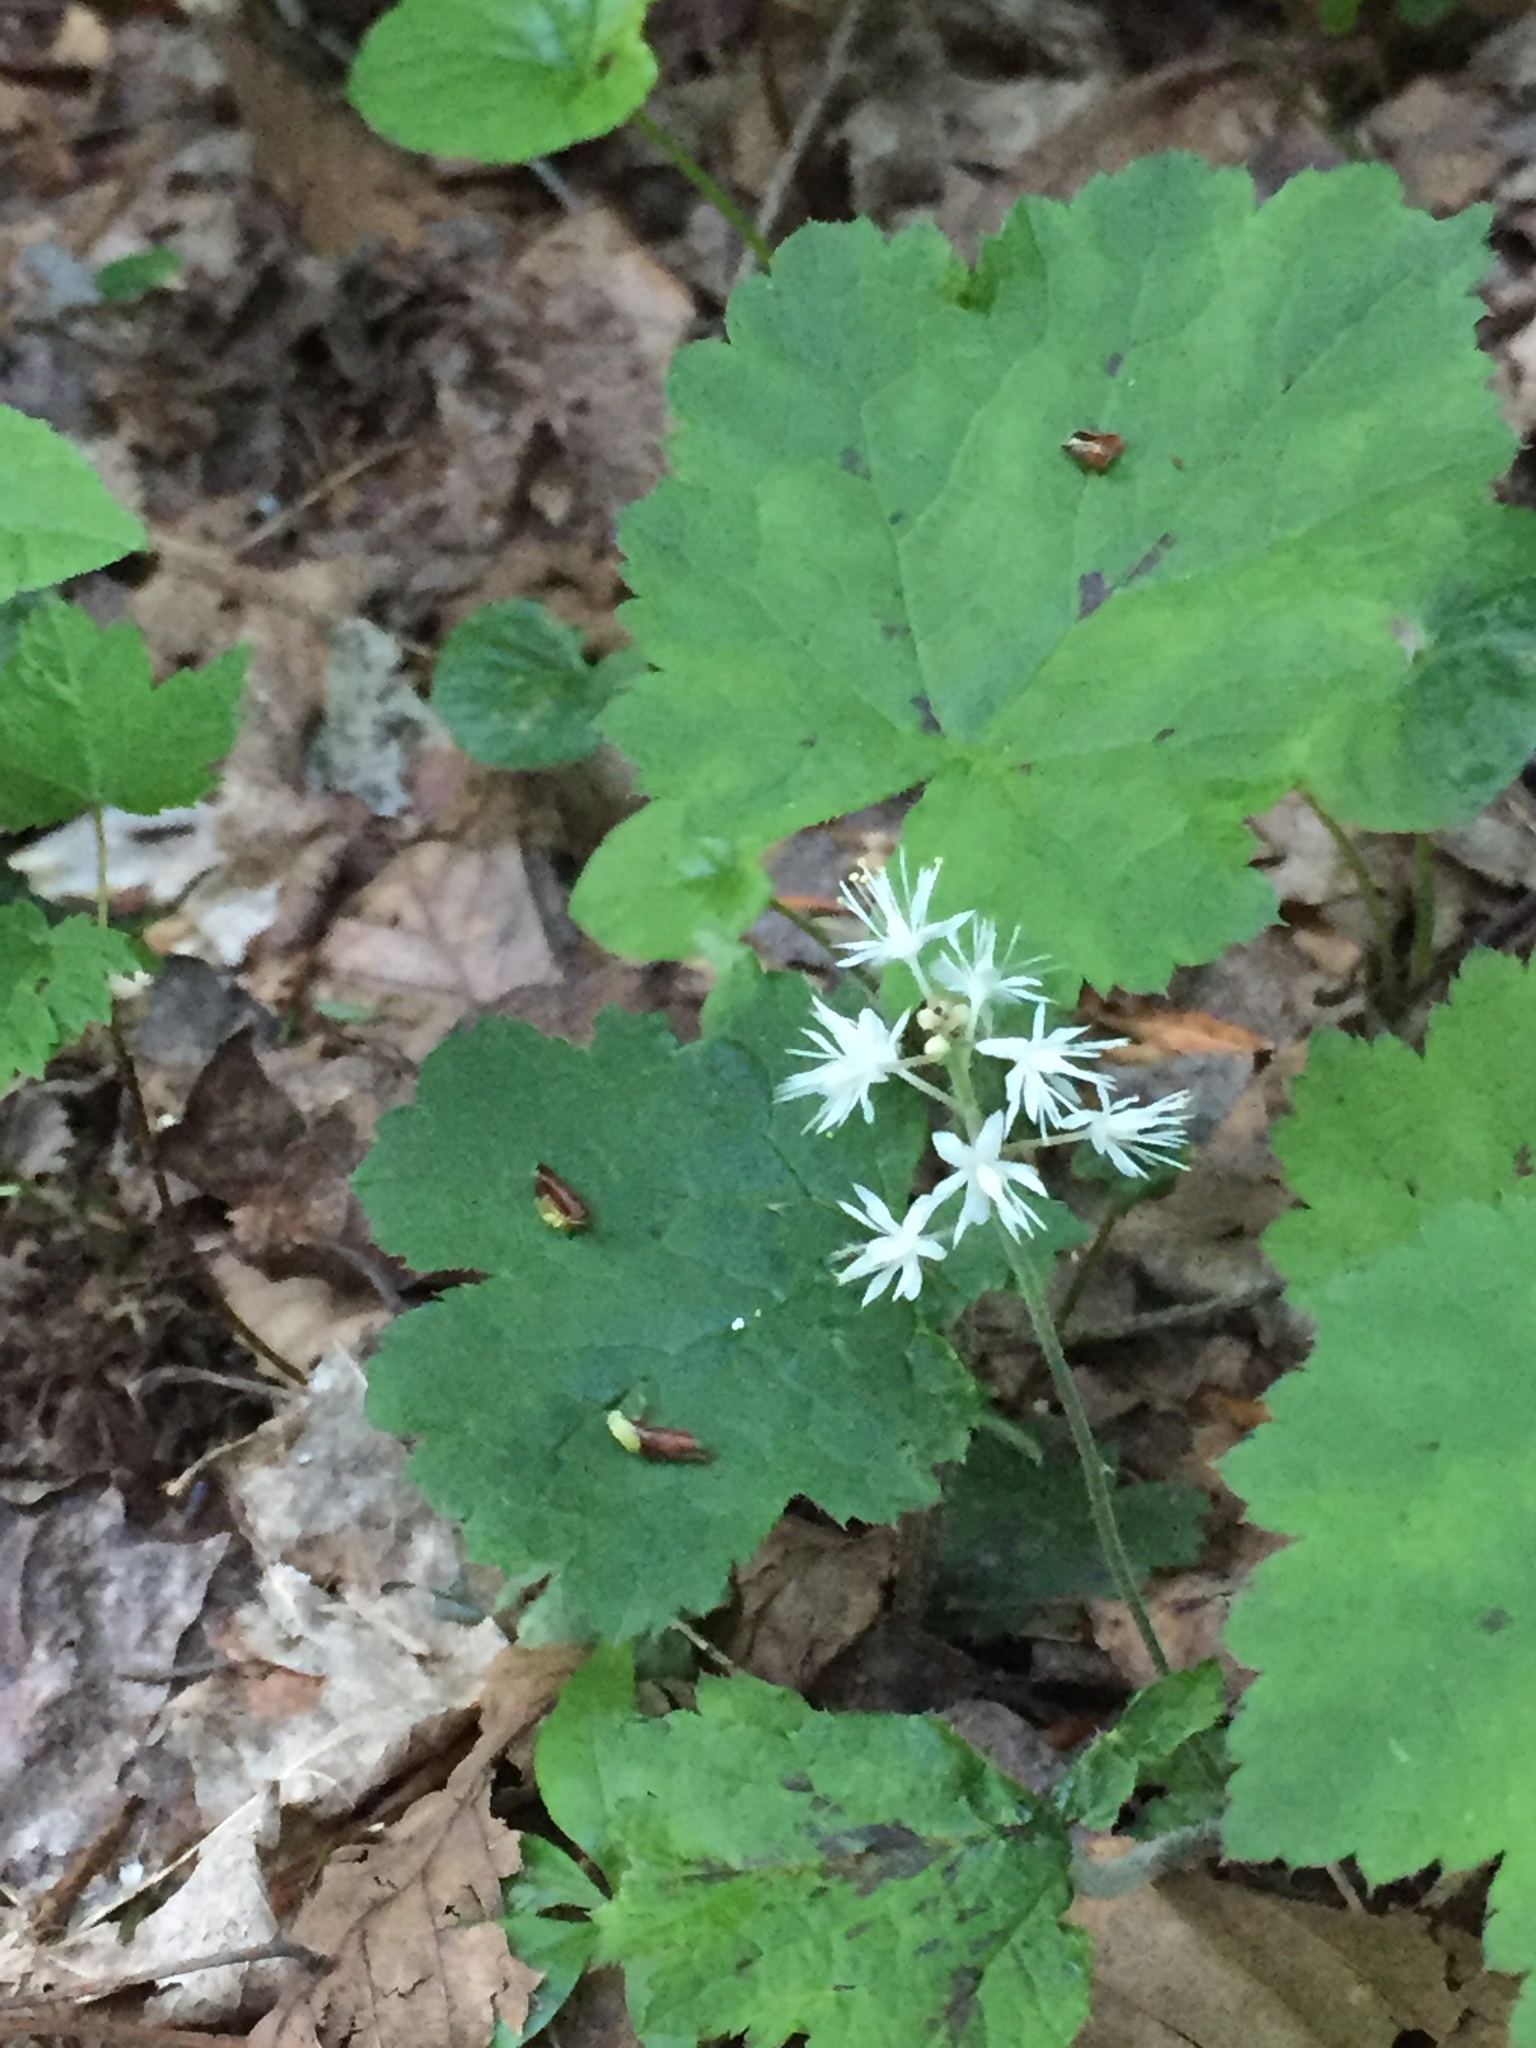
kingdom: Plantae
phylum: Tracheophyta
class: Magnoliopsida
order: Saxifragales
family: Saxifragaceae
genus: Tiarella
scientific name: Tiarella stolonifera
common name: Stoloniferous foamflower
